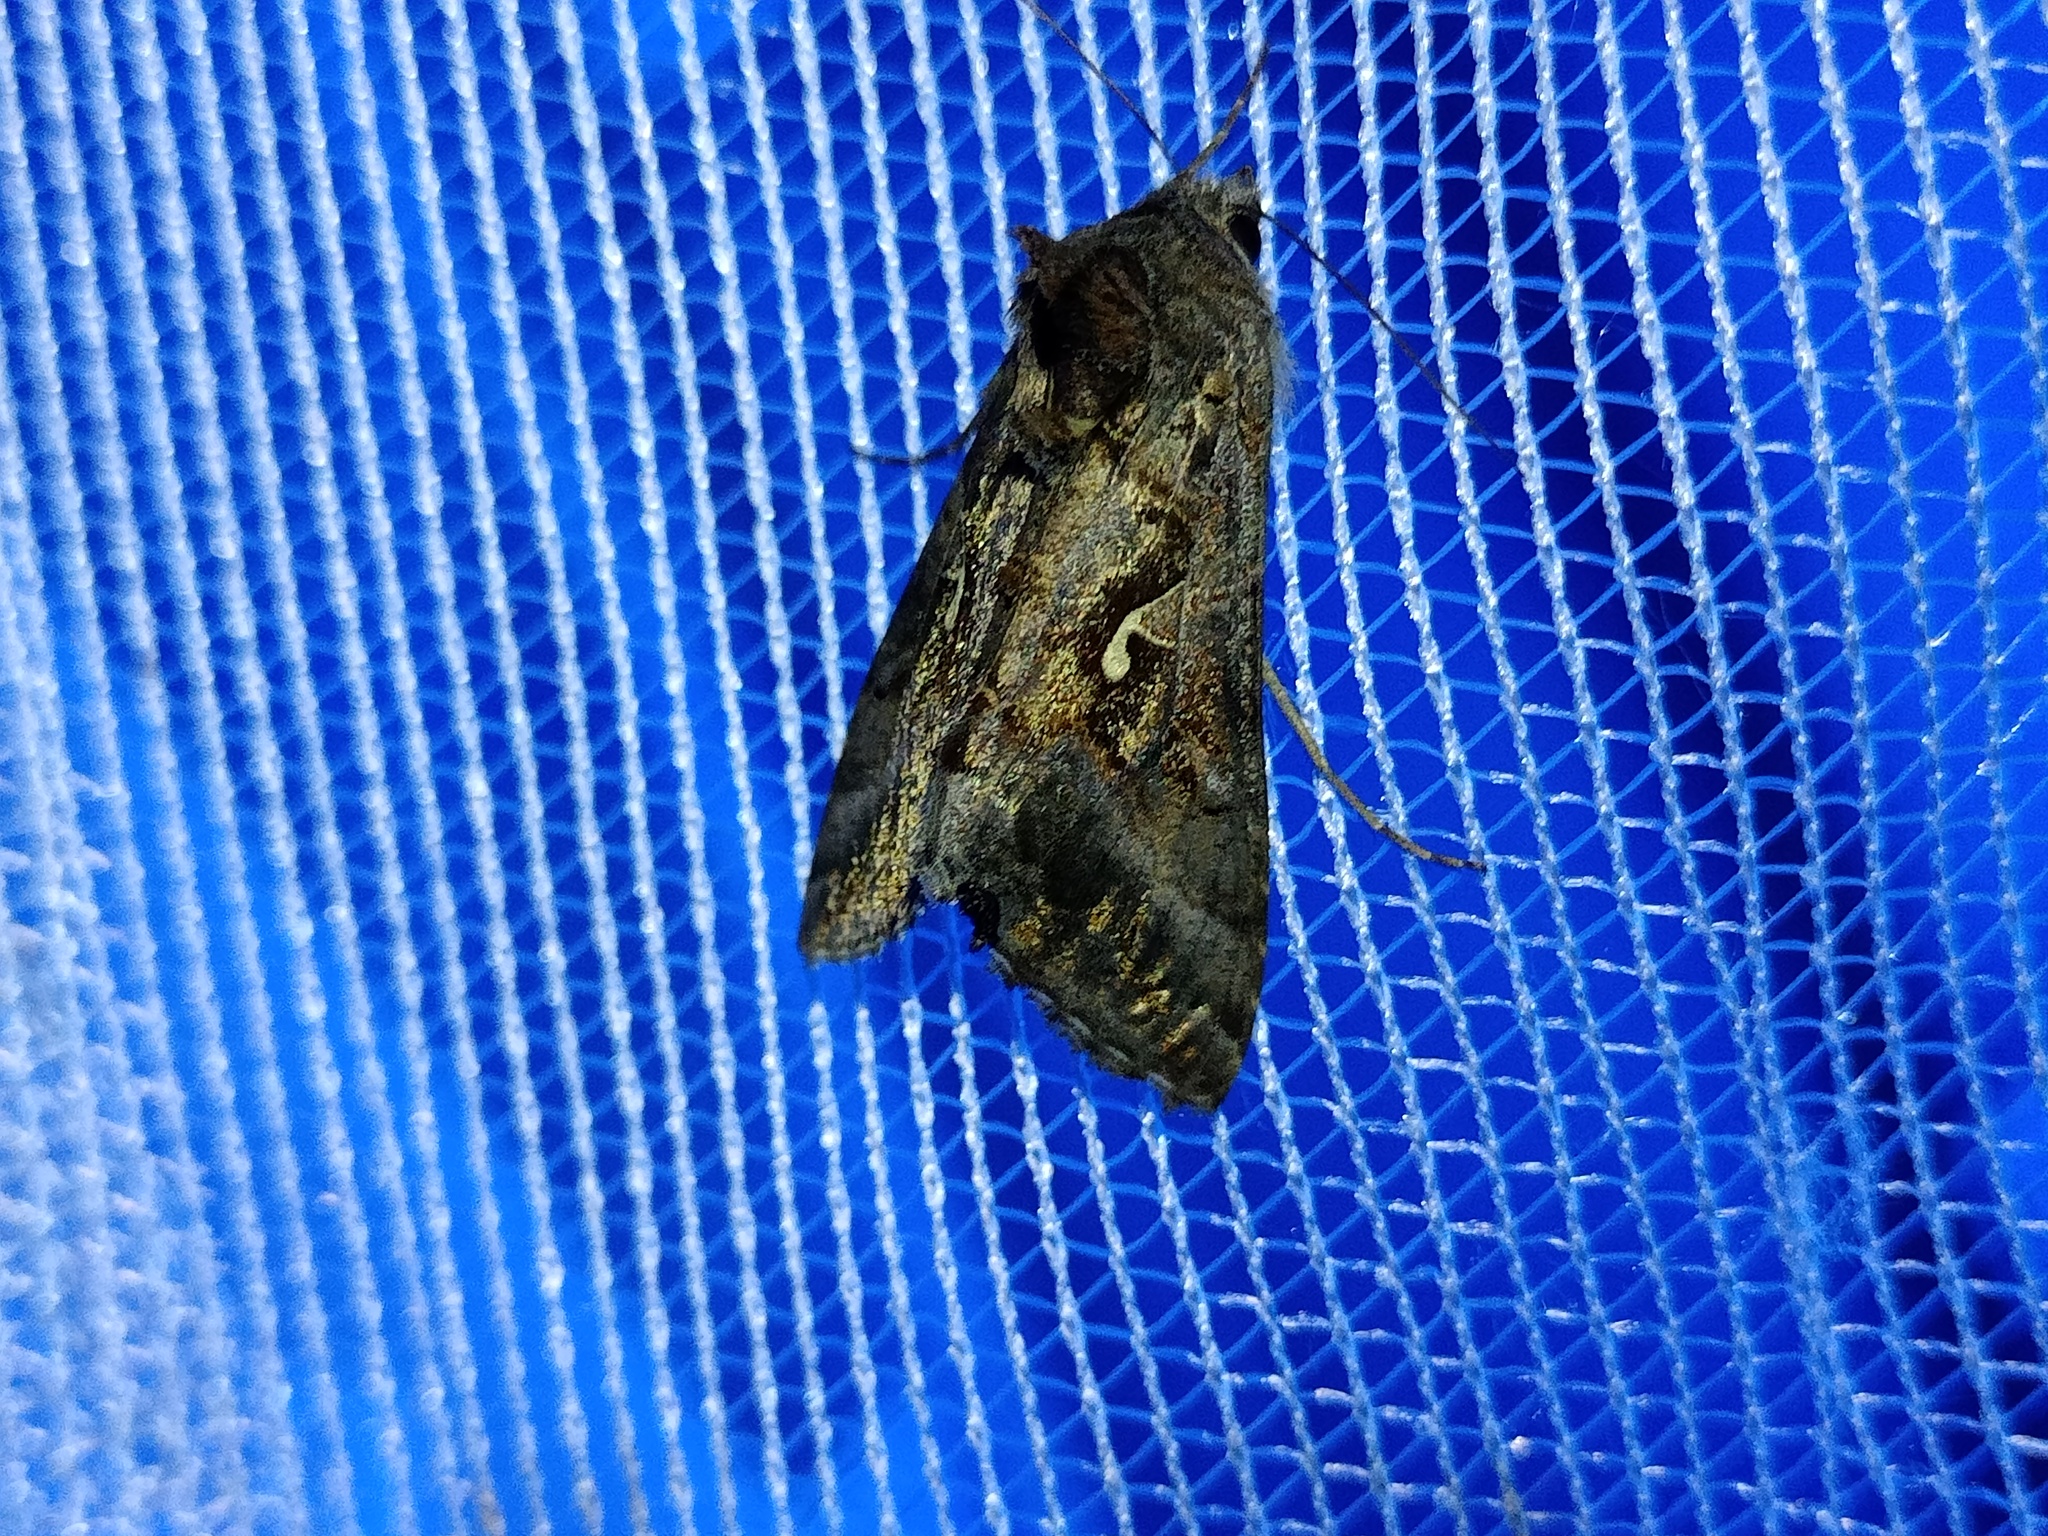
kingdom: Animalia
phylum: Arthropoda
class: Insecta
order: Lepidoptera
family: Noctuidae
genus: Autographa
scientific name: Autographa gamma
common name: Silver y
